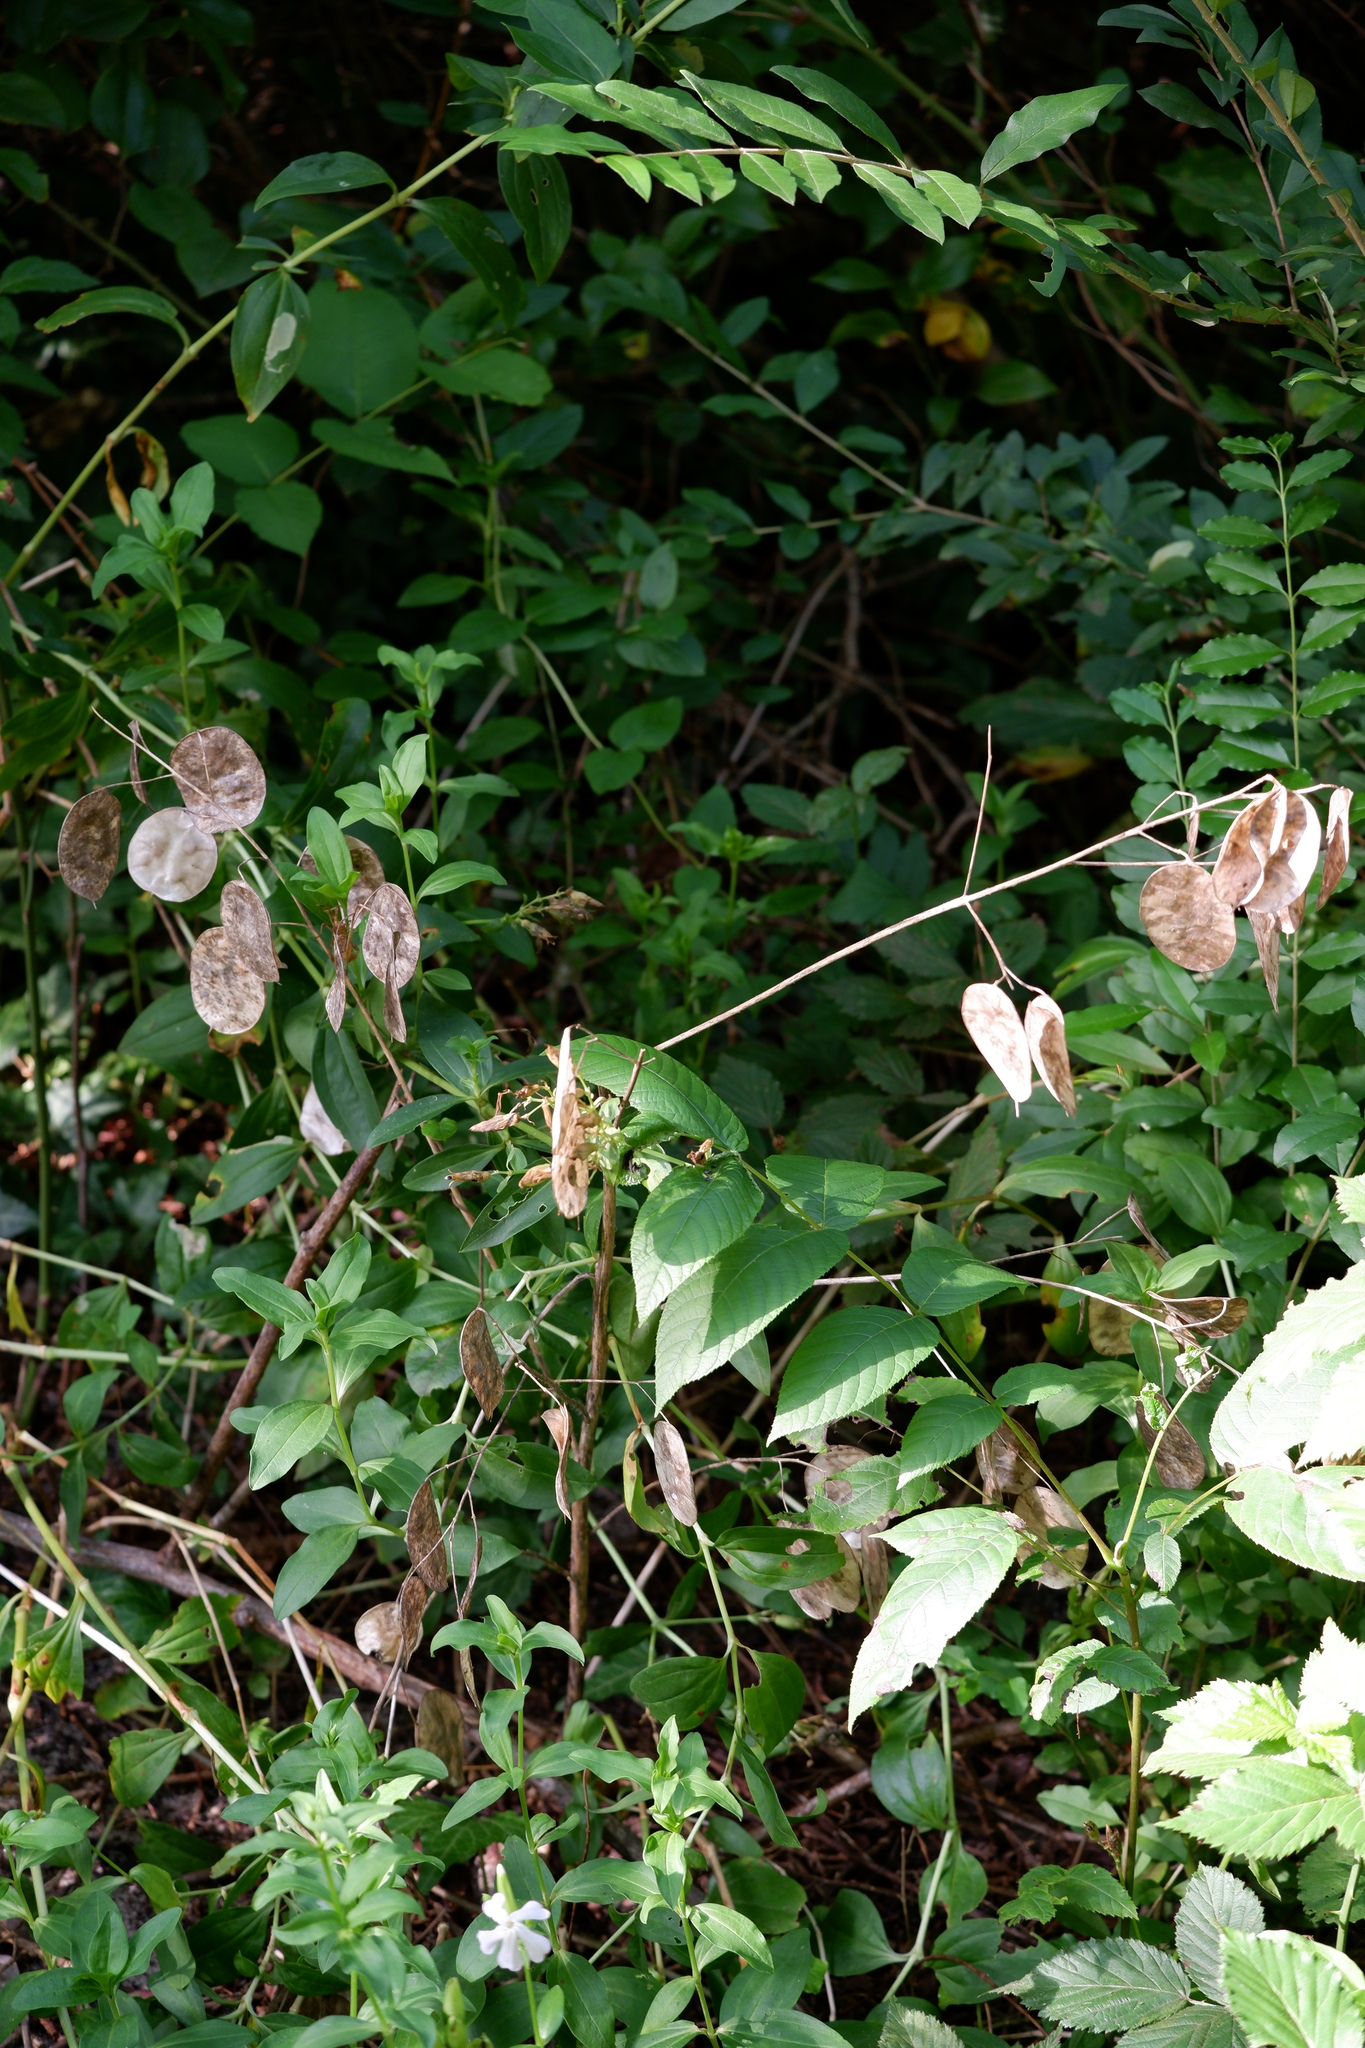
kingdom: Plantae
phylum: Tracheophyta
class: Magnoliopsida
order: Brassicales
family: Brassicaceae
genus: Lunaria
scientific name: Lunaria annua
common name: Honesty
